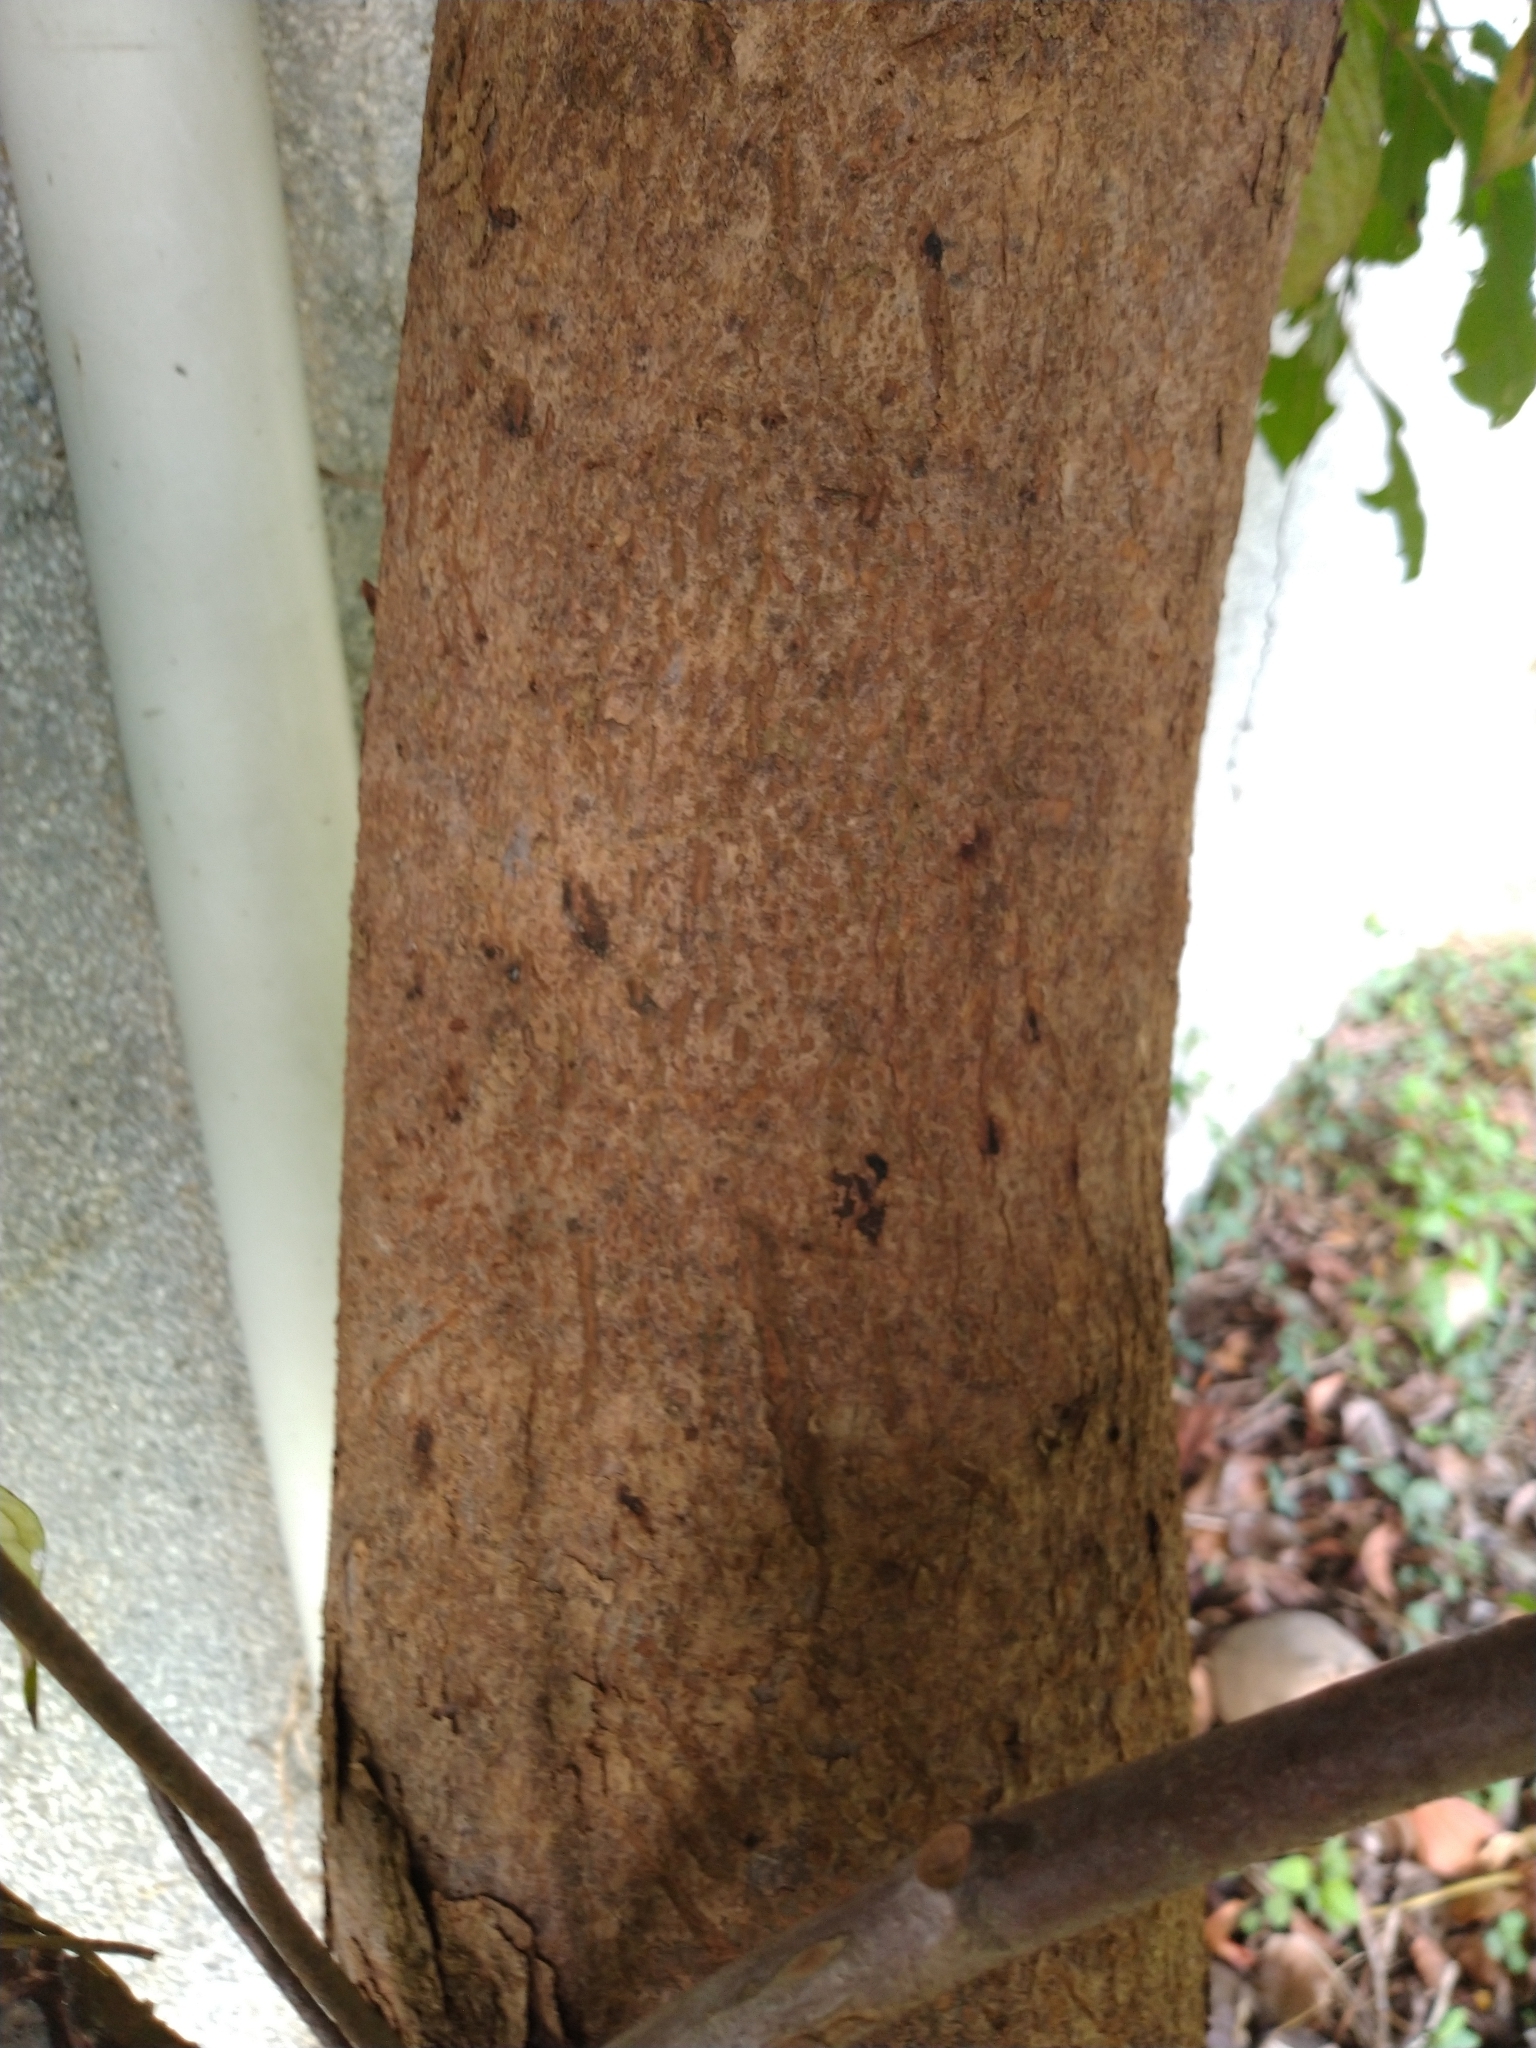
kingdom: Plantae
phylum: Tracheophyta
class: Magnoliopsida
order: Malpighiales
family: Phyllanthaceae
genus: Bischofia
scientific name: Bischofia javanica
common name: Javanese bishopwood
